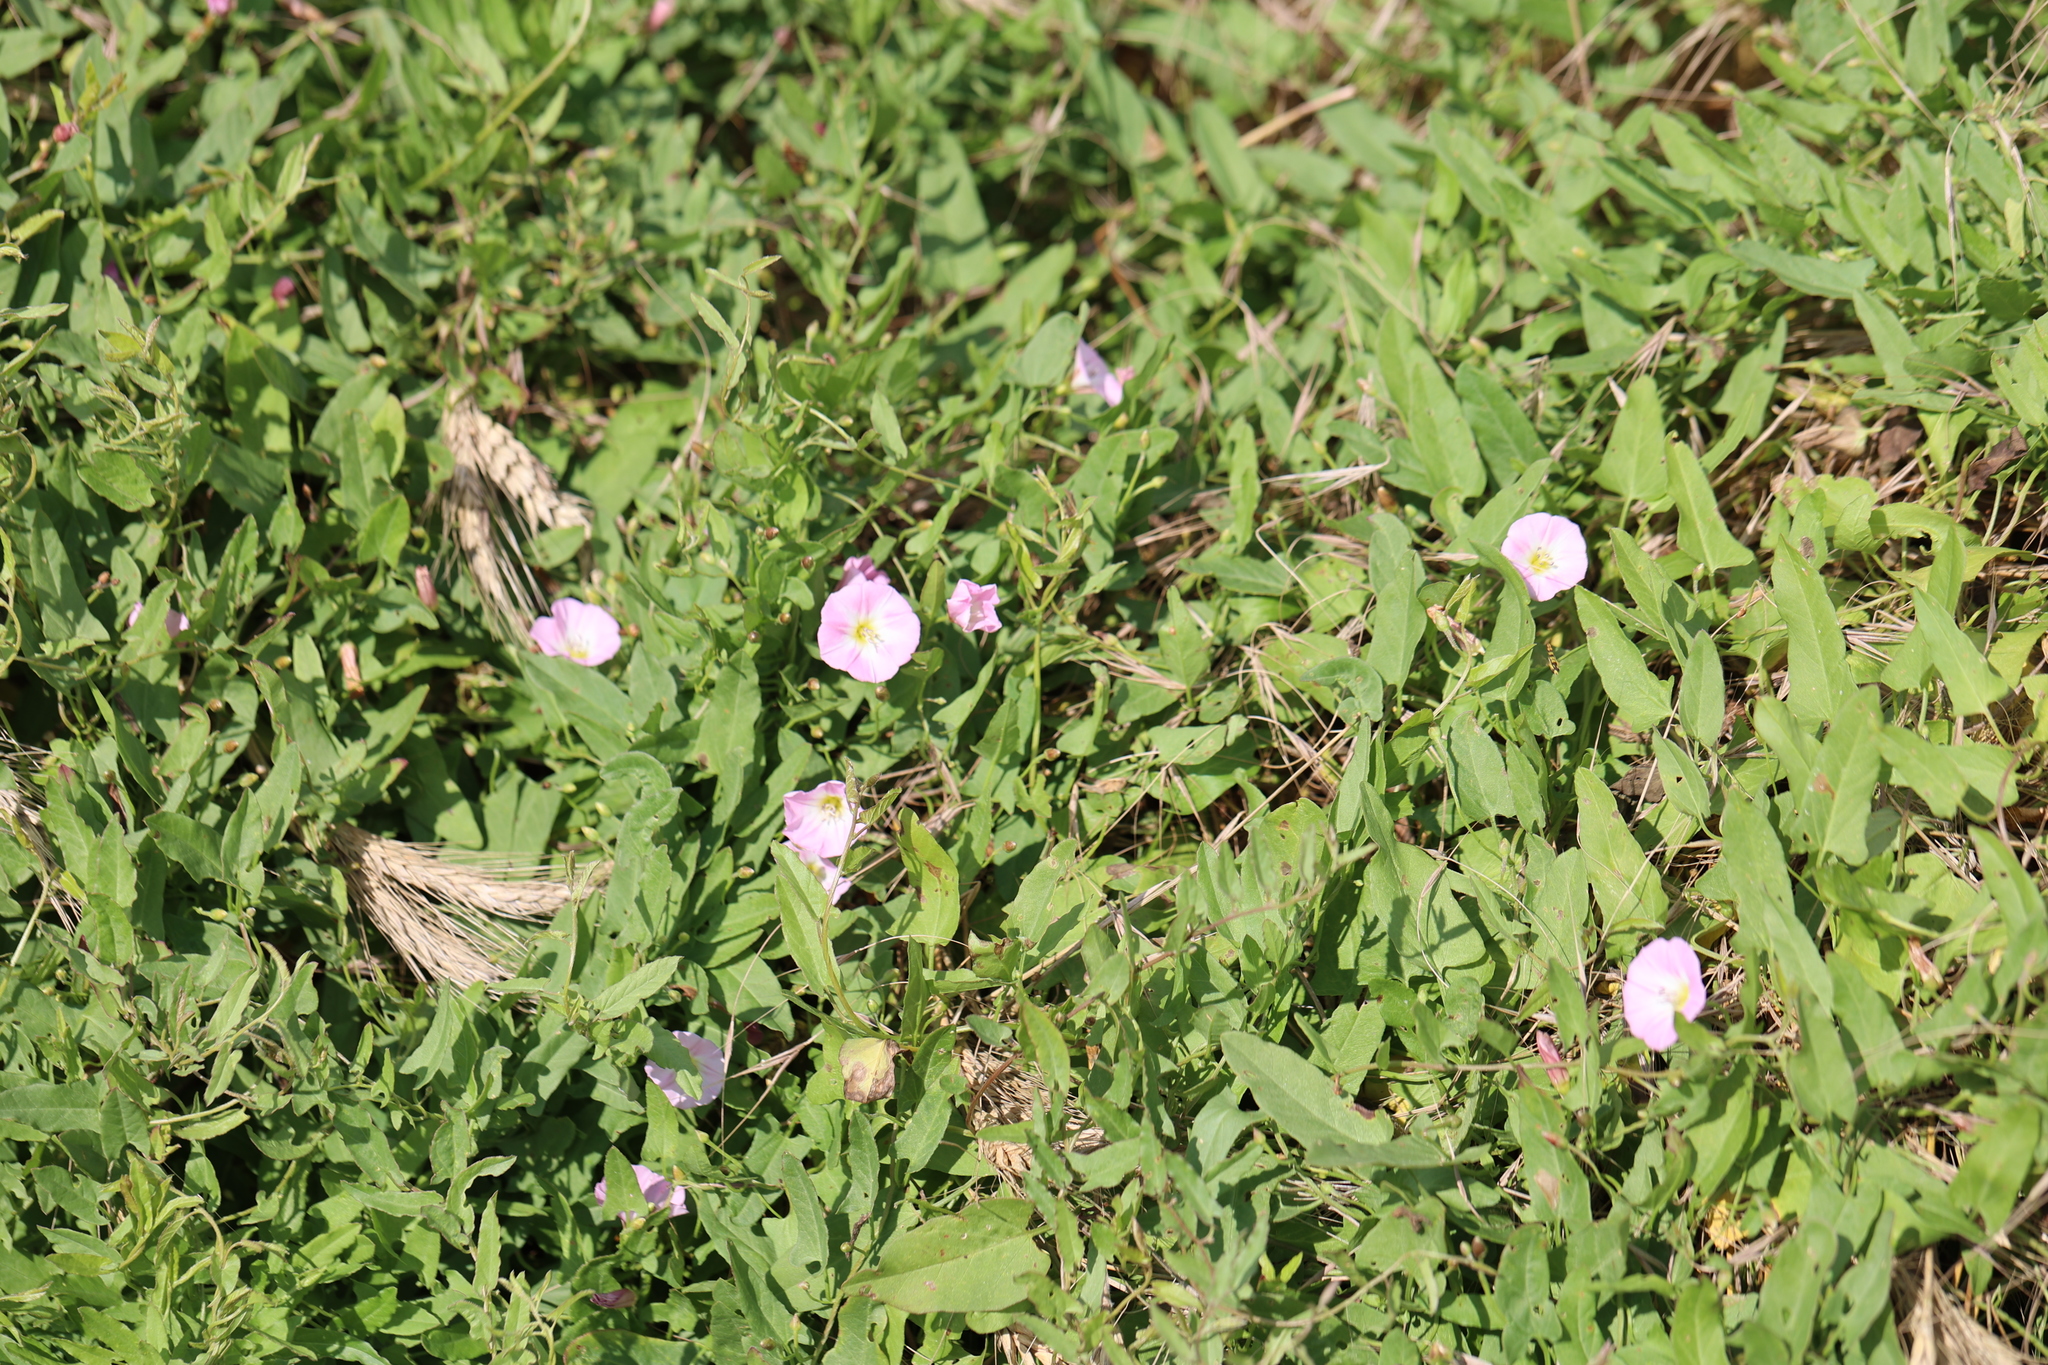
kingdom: Plantae
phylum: Tracheophyta
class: Magnoliopsida
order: Solanales
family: Convolvulaceae
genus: Convolvulus
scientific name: Convolvulus arvensis
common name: Field bindweed
